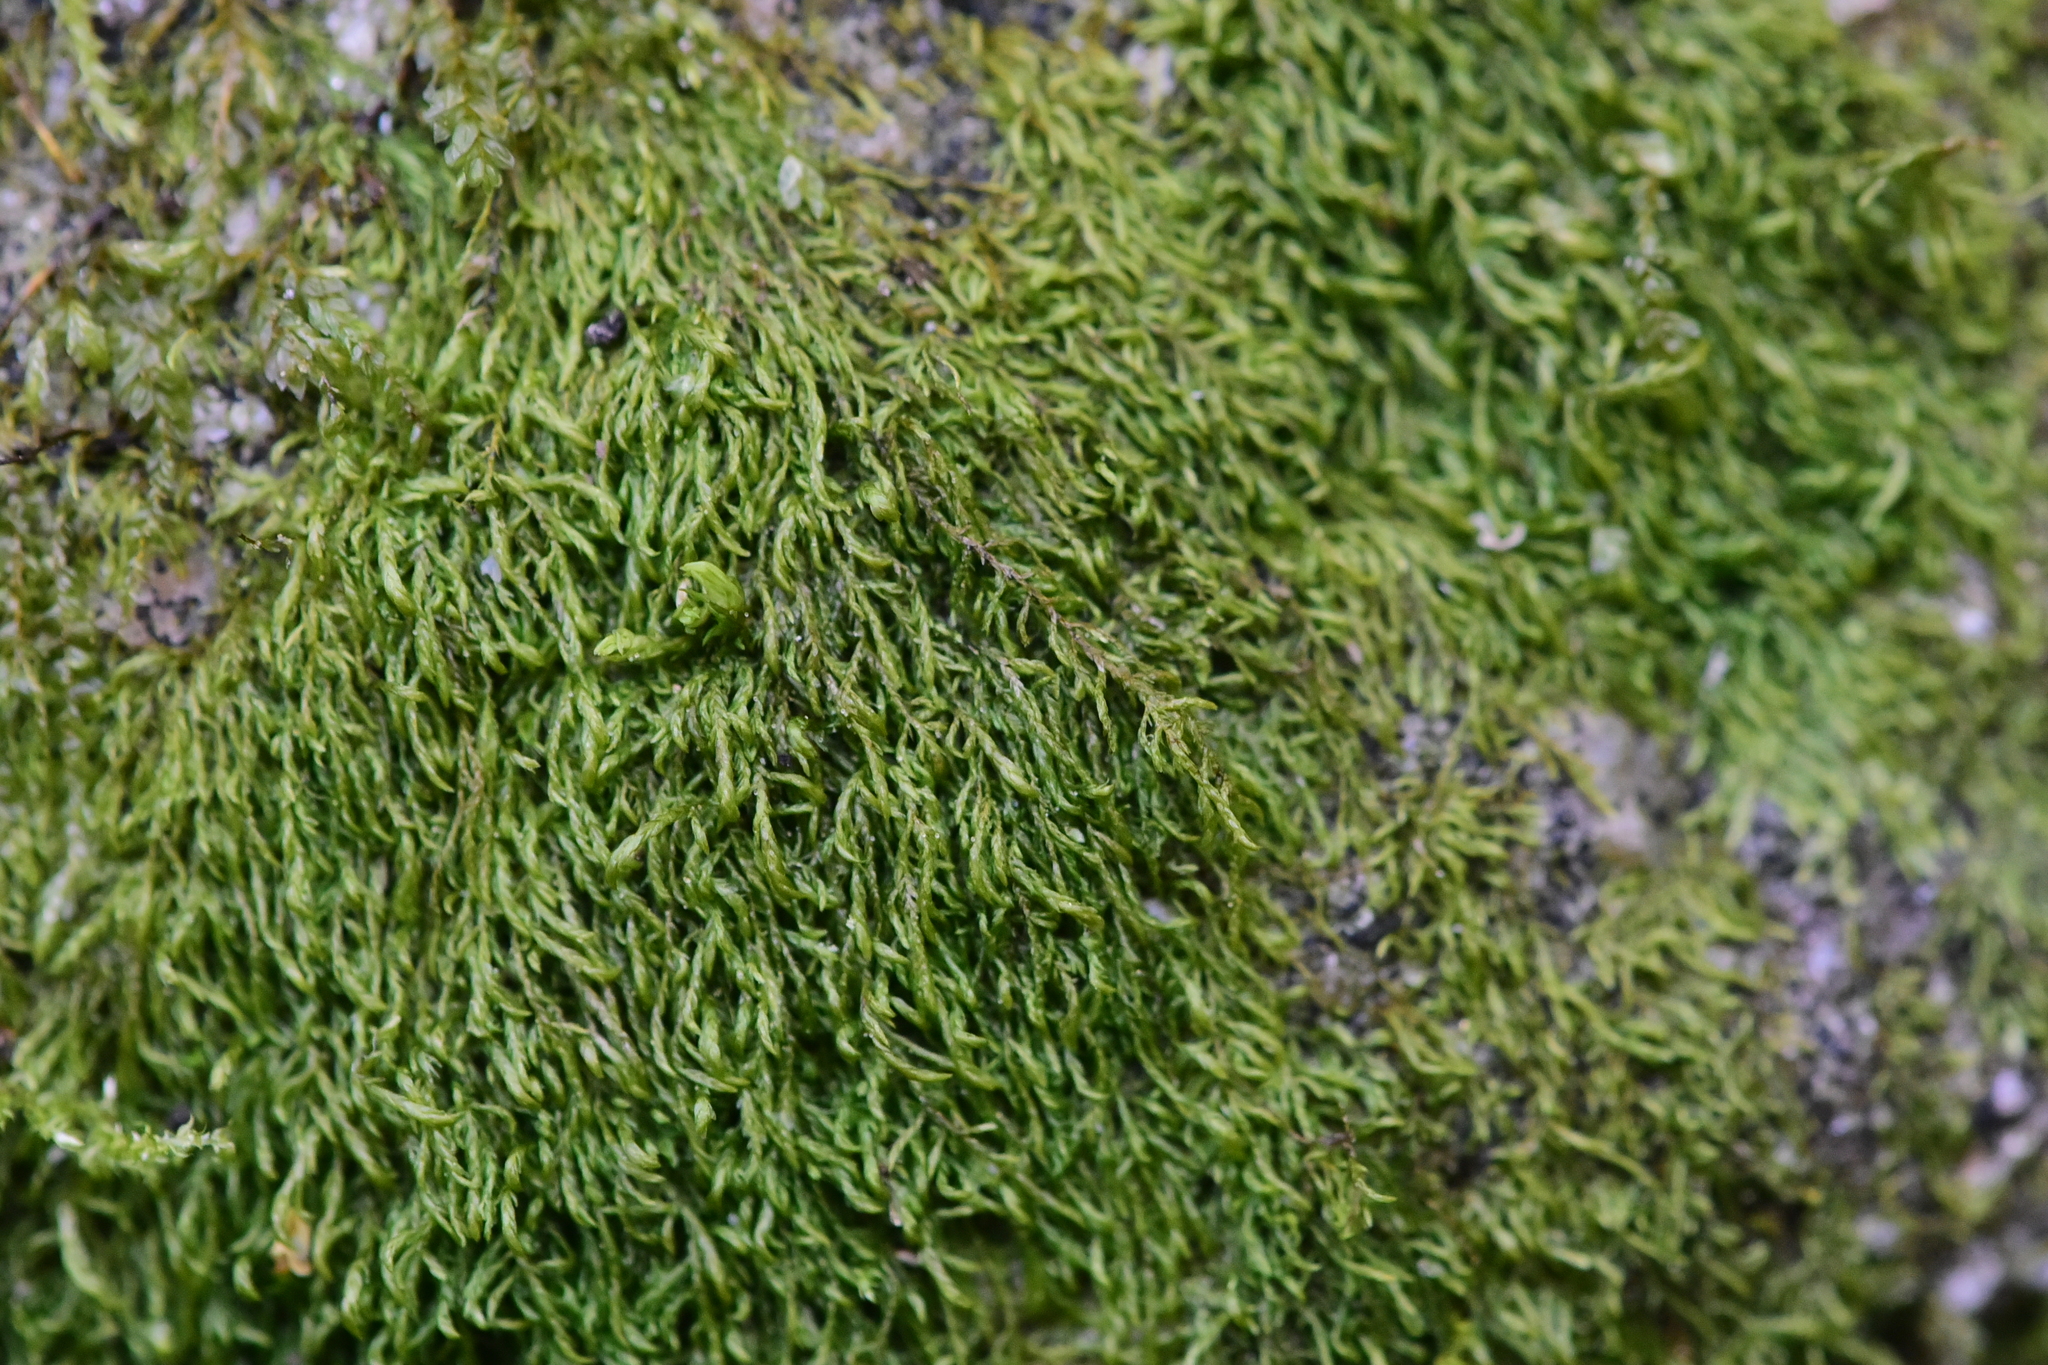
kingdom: Plantae
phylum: Bryophyta
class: Bryopsida
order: Hypnales
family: Lembophyllaceae
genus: Bryolawtonia
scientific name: Bryolawtonia vancouveriensis
